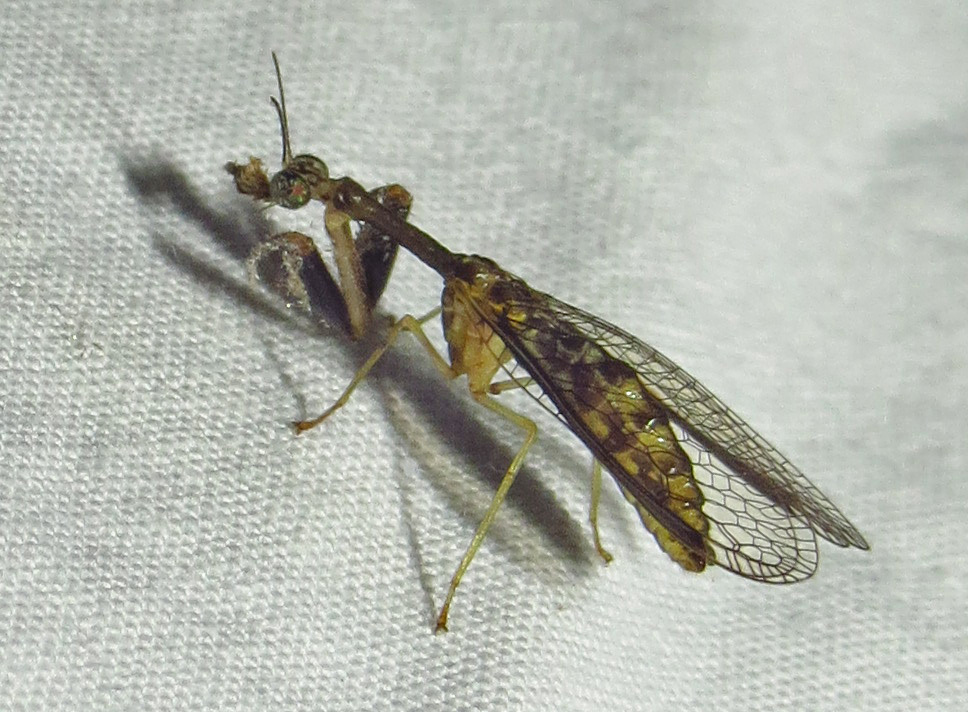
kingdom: Animalia
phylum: Arthropoda
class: Insecta
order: Neuroptera
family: Mantispidae
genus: Dicromantispa
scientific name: Dicromantispa sayi
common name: Say's mantidfly
